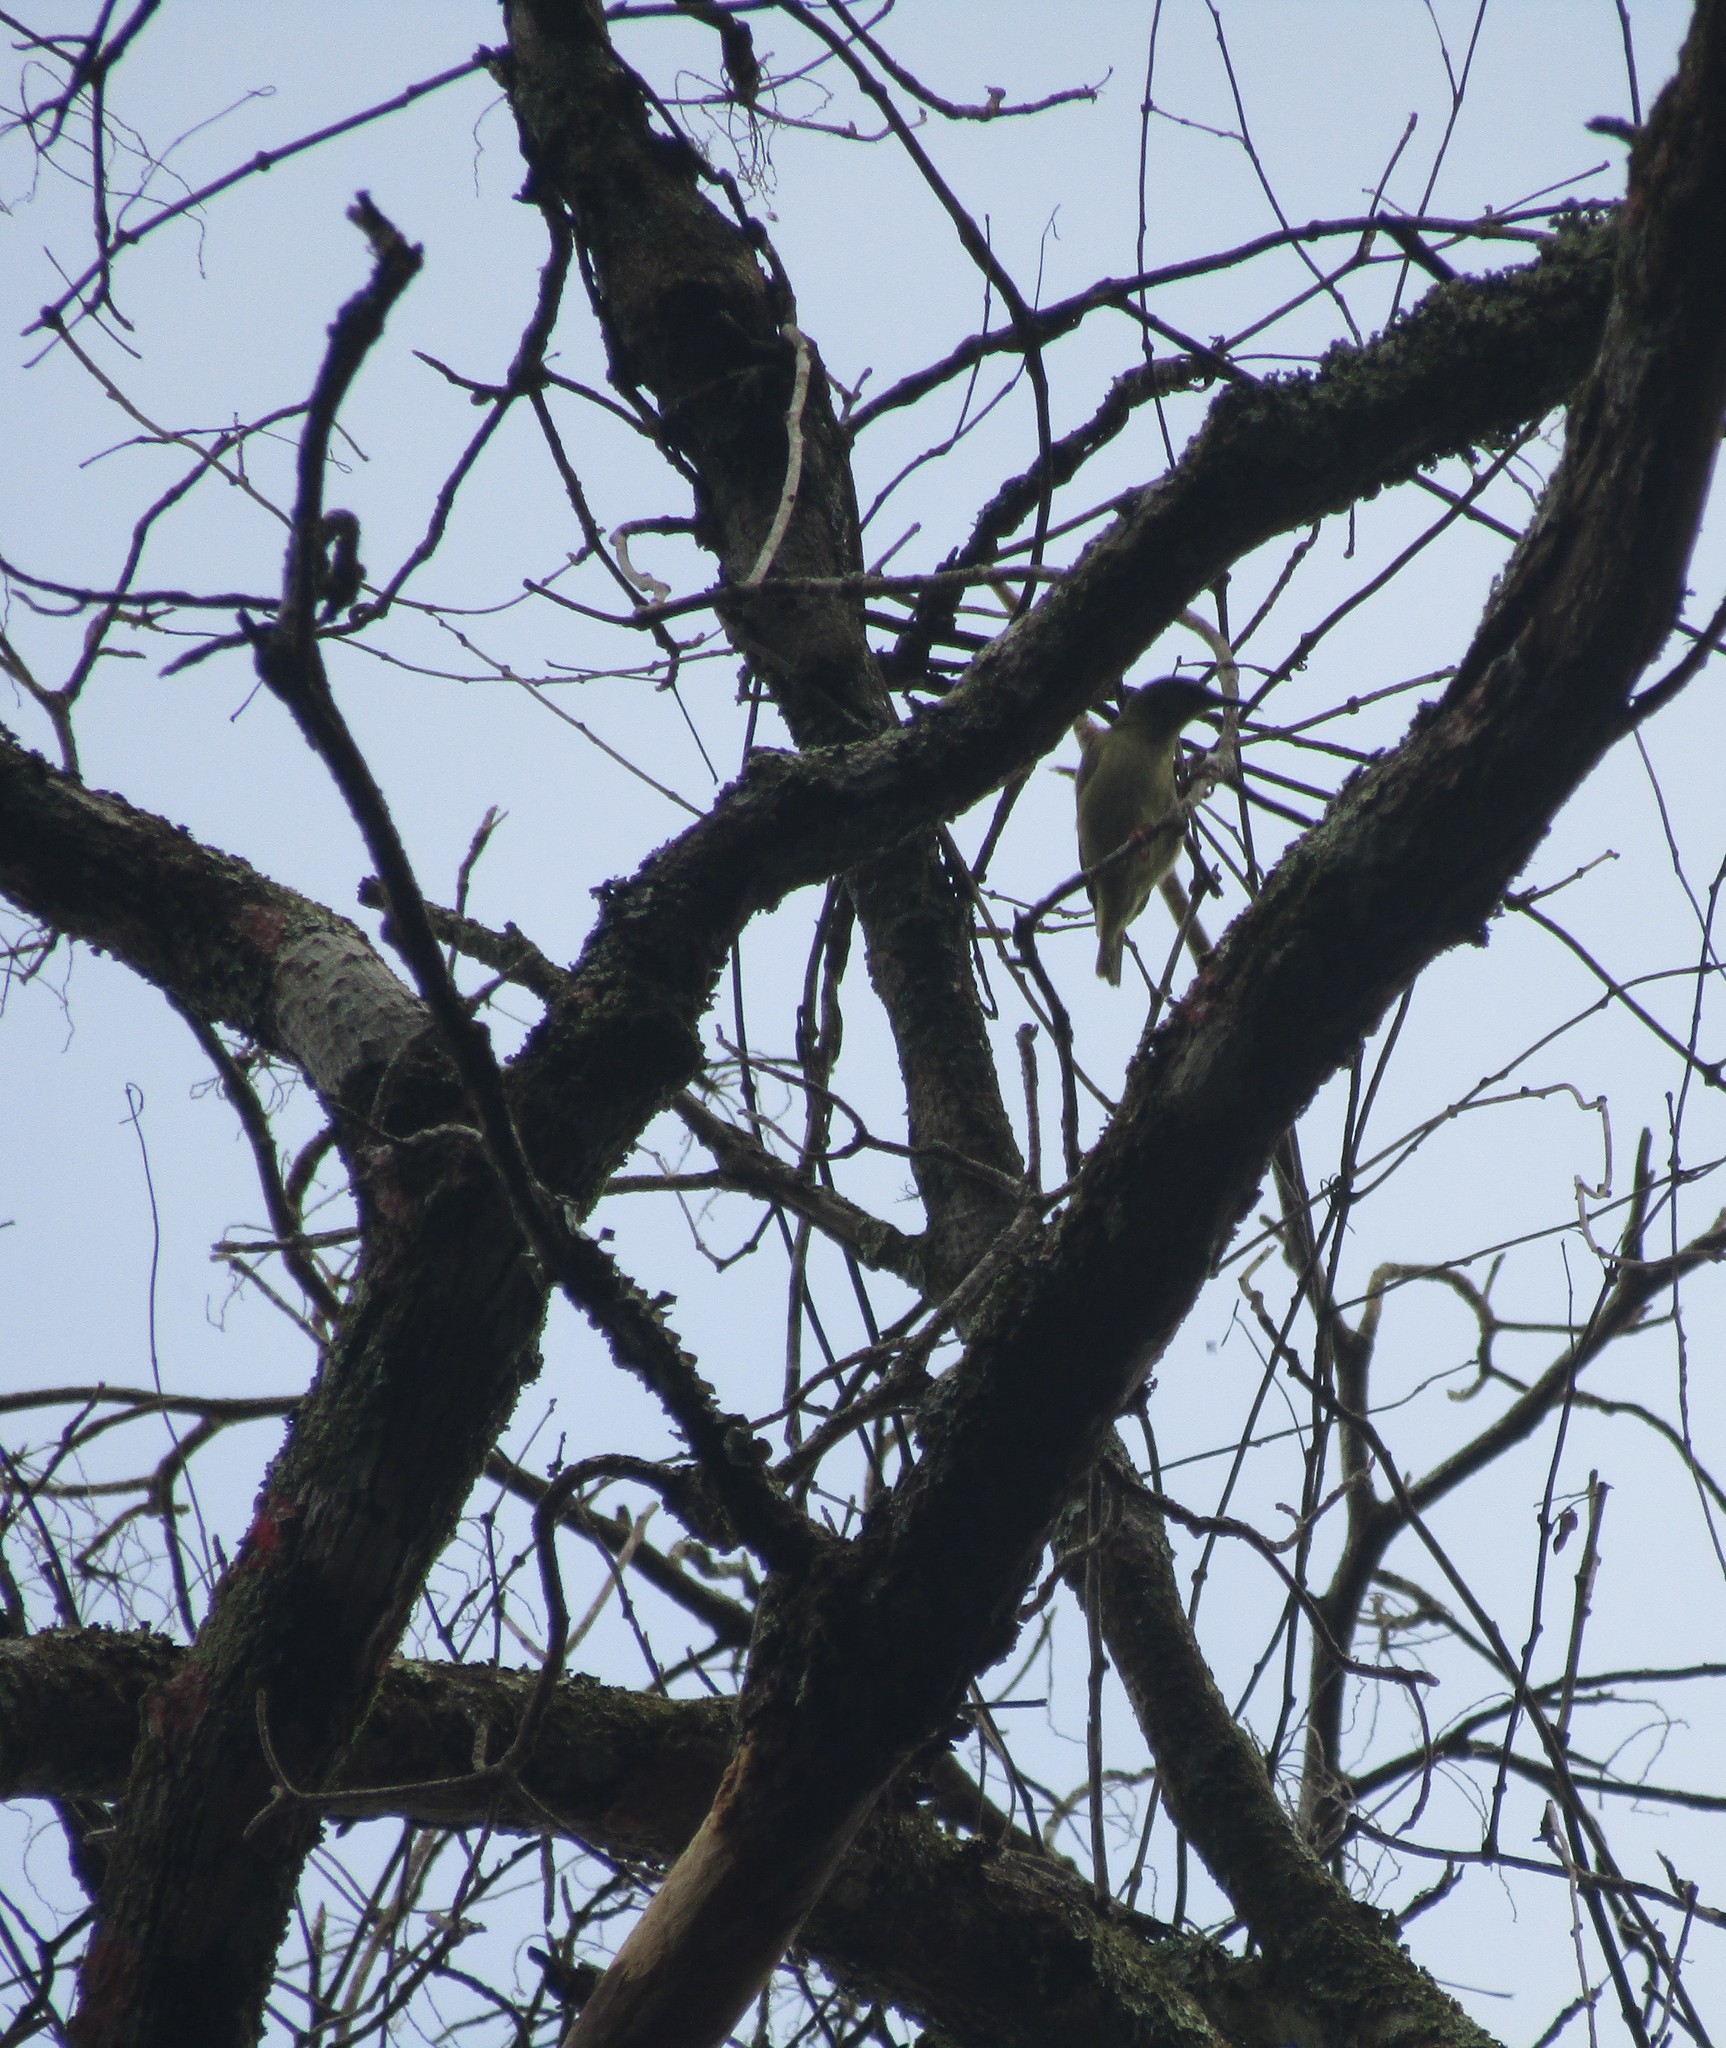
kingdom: Animalia
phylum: Chordata
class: Aves
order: Passeriformes
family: Thraupidae
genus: Cyanerpes
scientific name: Cyanerpes cyaneus
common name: Red-legged honeycreeper
